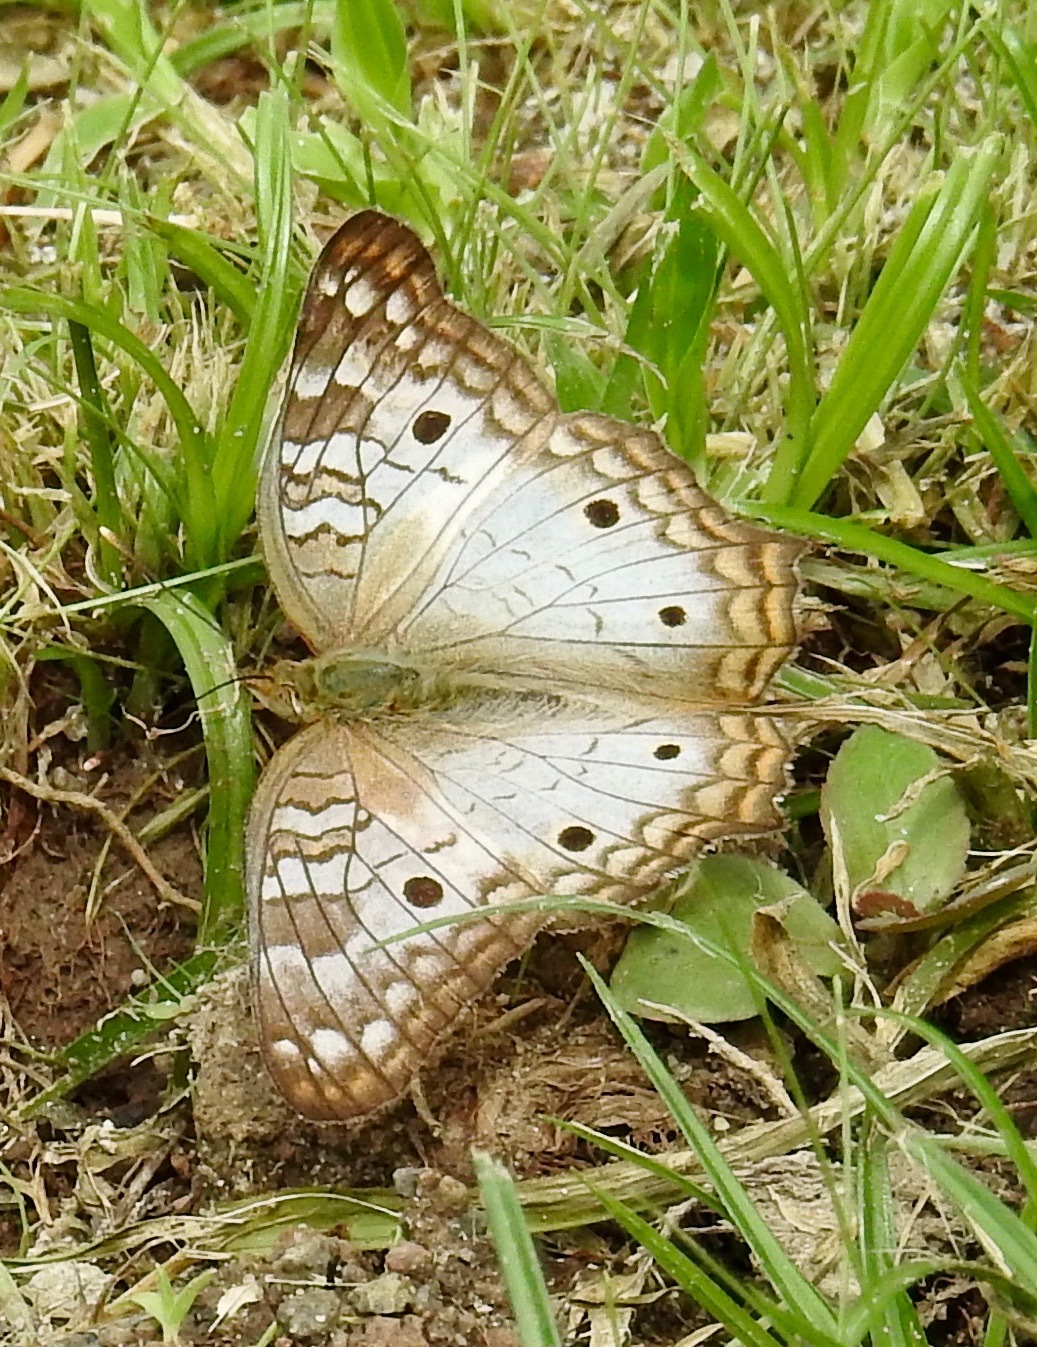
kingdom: Animalia
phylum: Arthropoda
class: Insecta
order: Lepidoptera
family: Nymphalidae
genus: Anartia
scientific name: Anartia jatrophae
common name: White peacock
